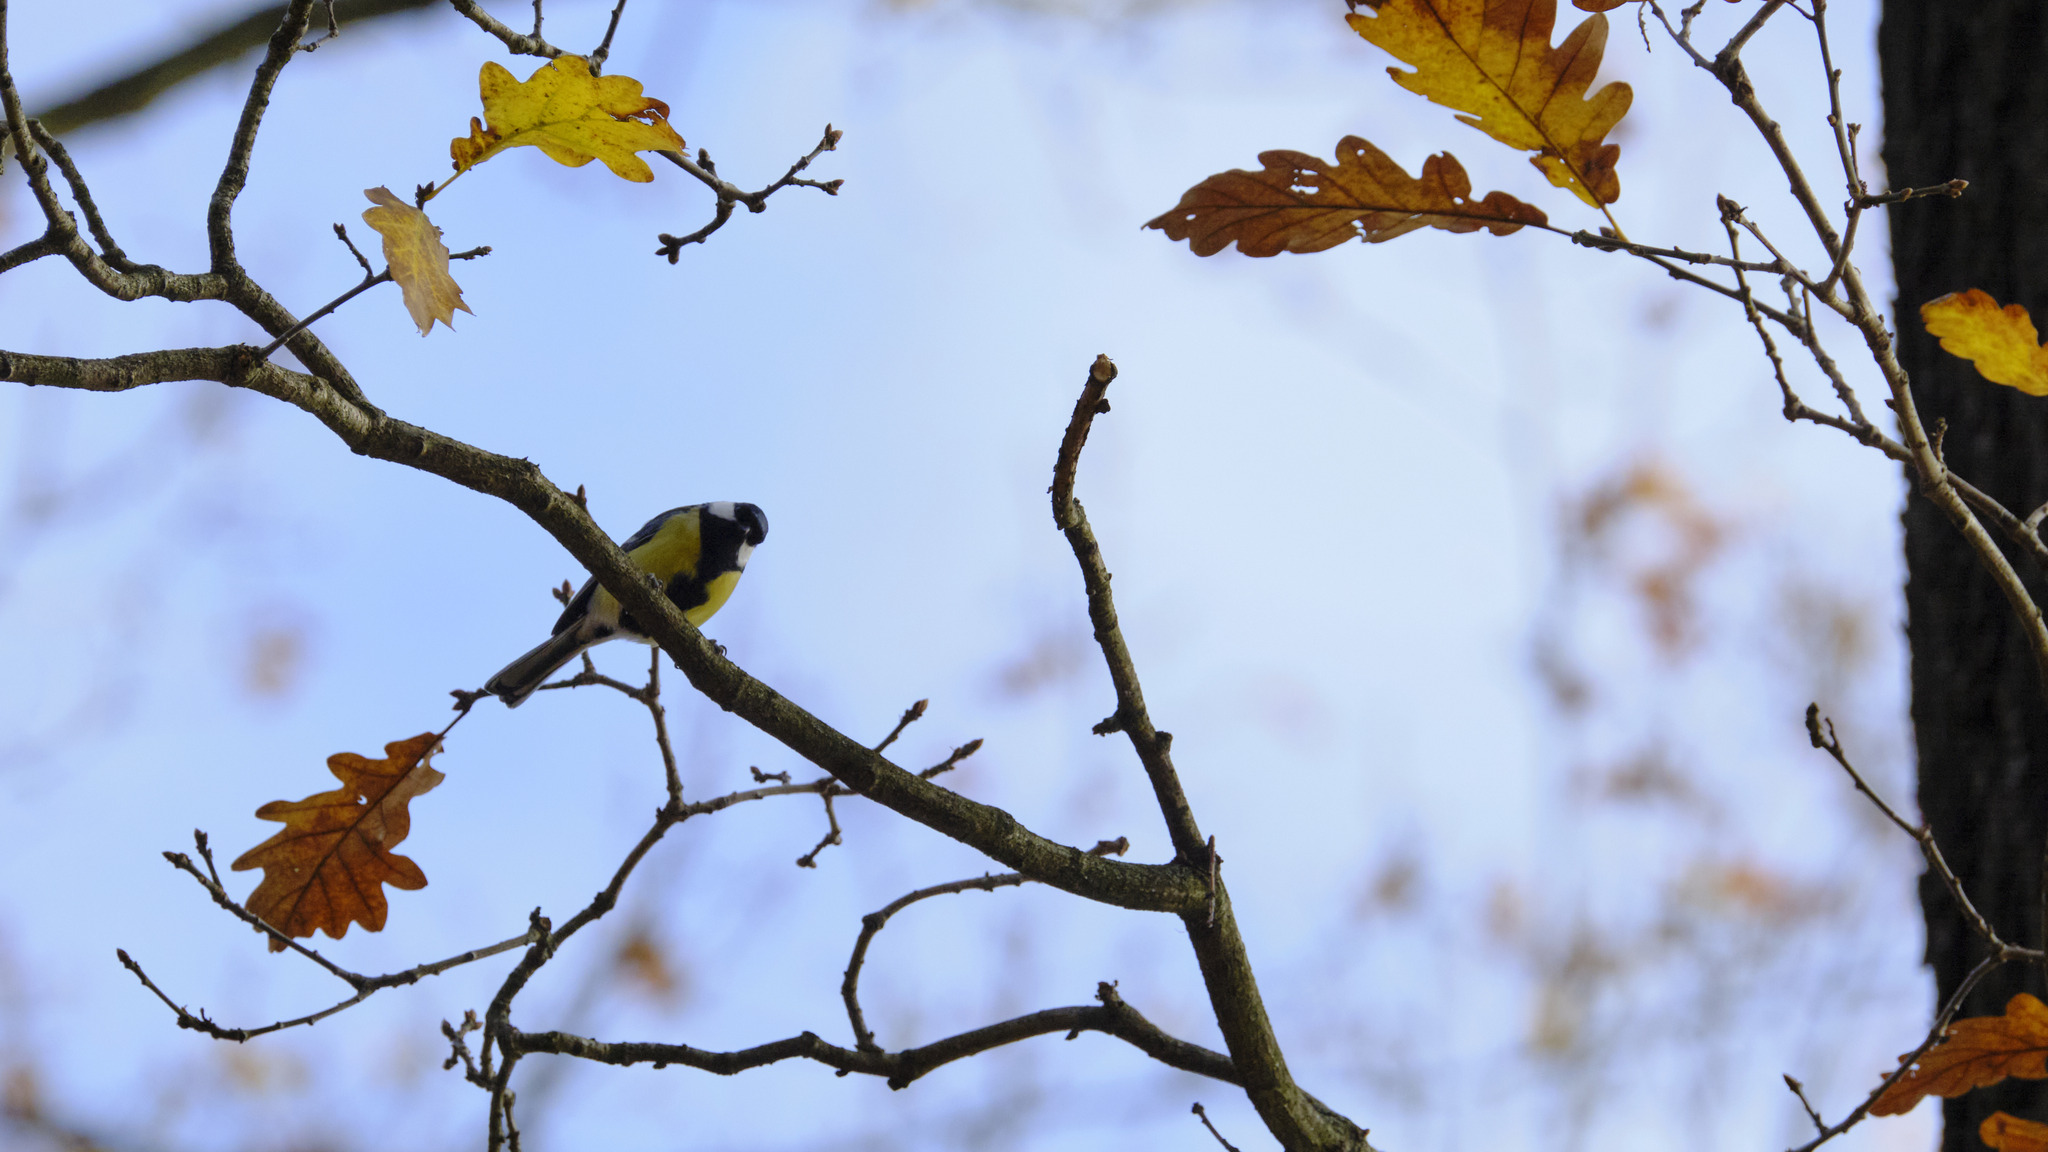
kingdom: Animalia
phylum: Chordata
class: Aves
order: Passeriformes
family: Paridae
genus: Parus
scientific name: Parus major
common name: Great tit
